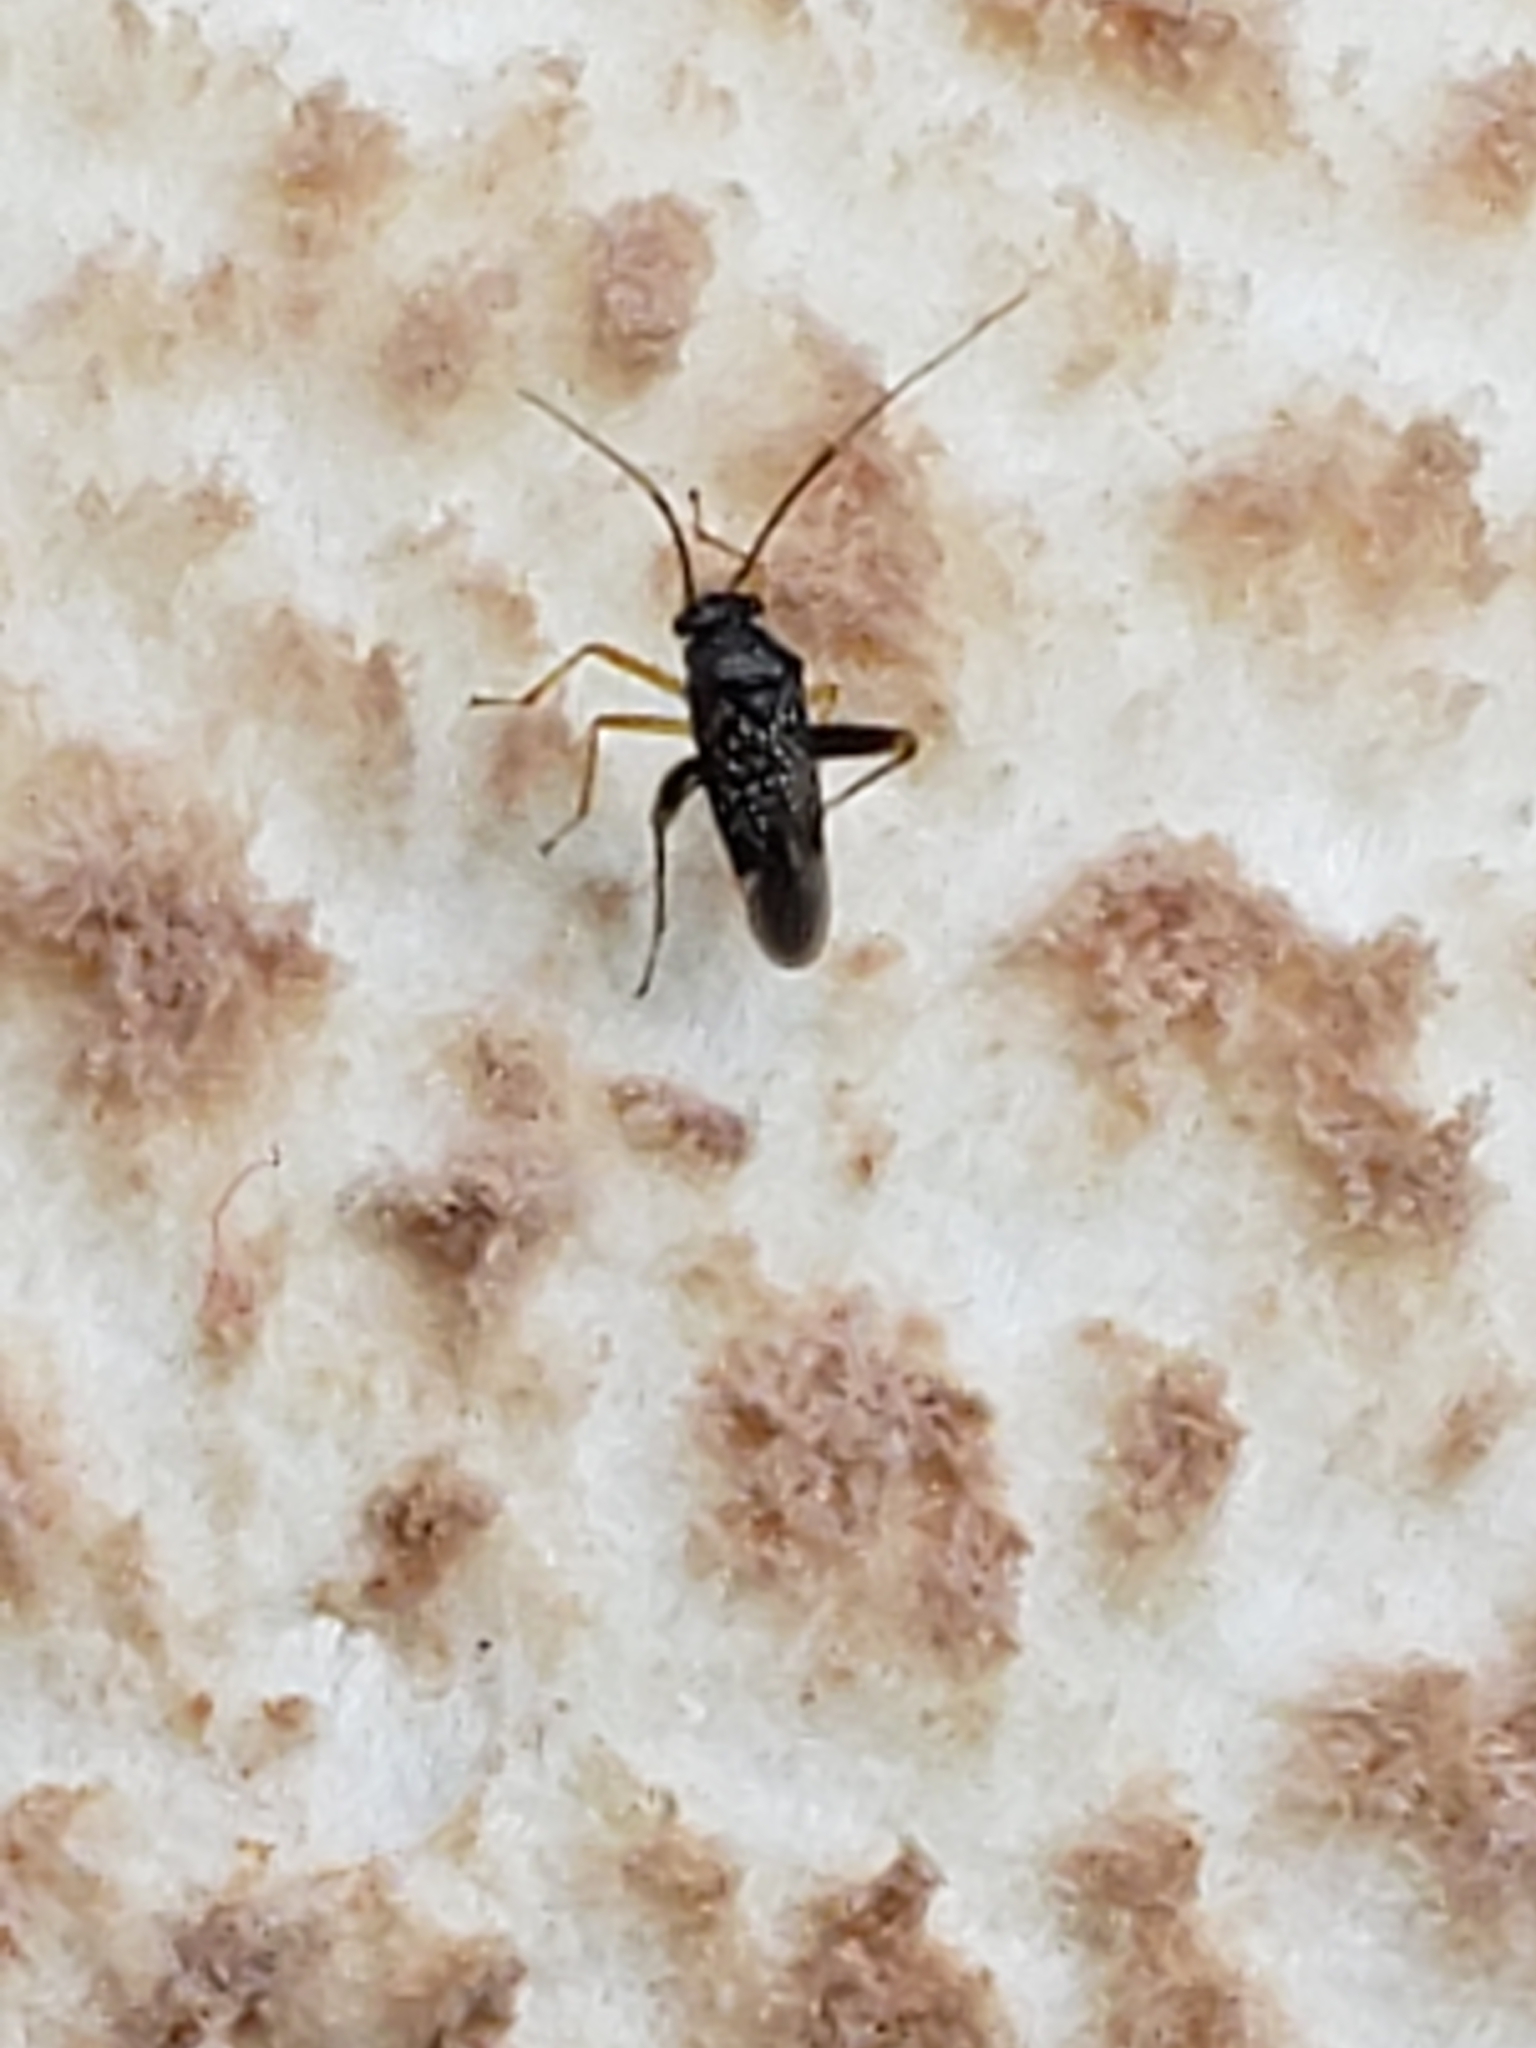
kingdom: Animalia
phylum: Arthropoda
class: Insecta
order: Hemiptera
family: Miridae
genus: Microtechnites
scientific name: Microtechnites bractatus
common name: Garden fleahopper
